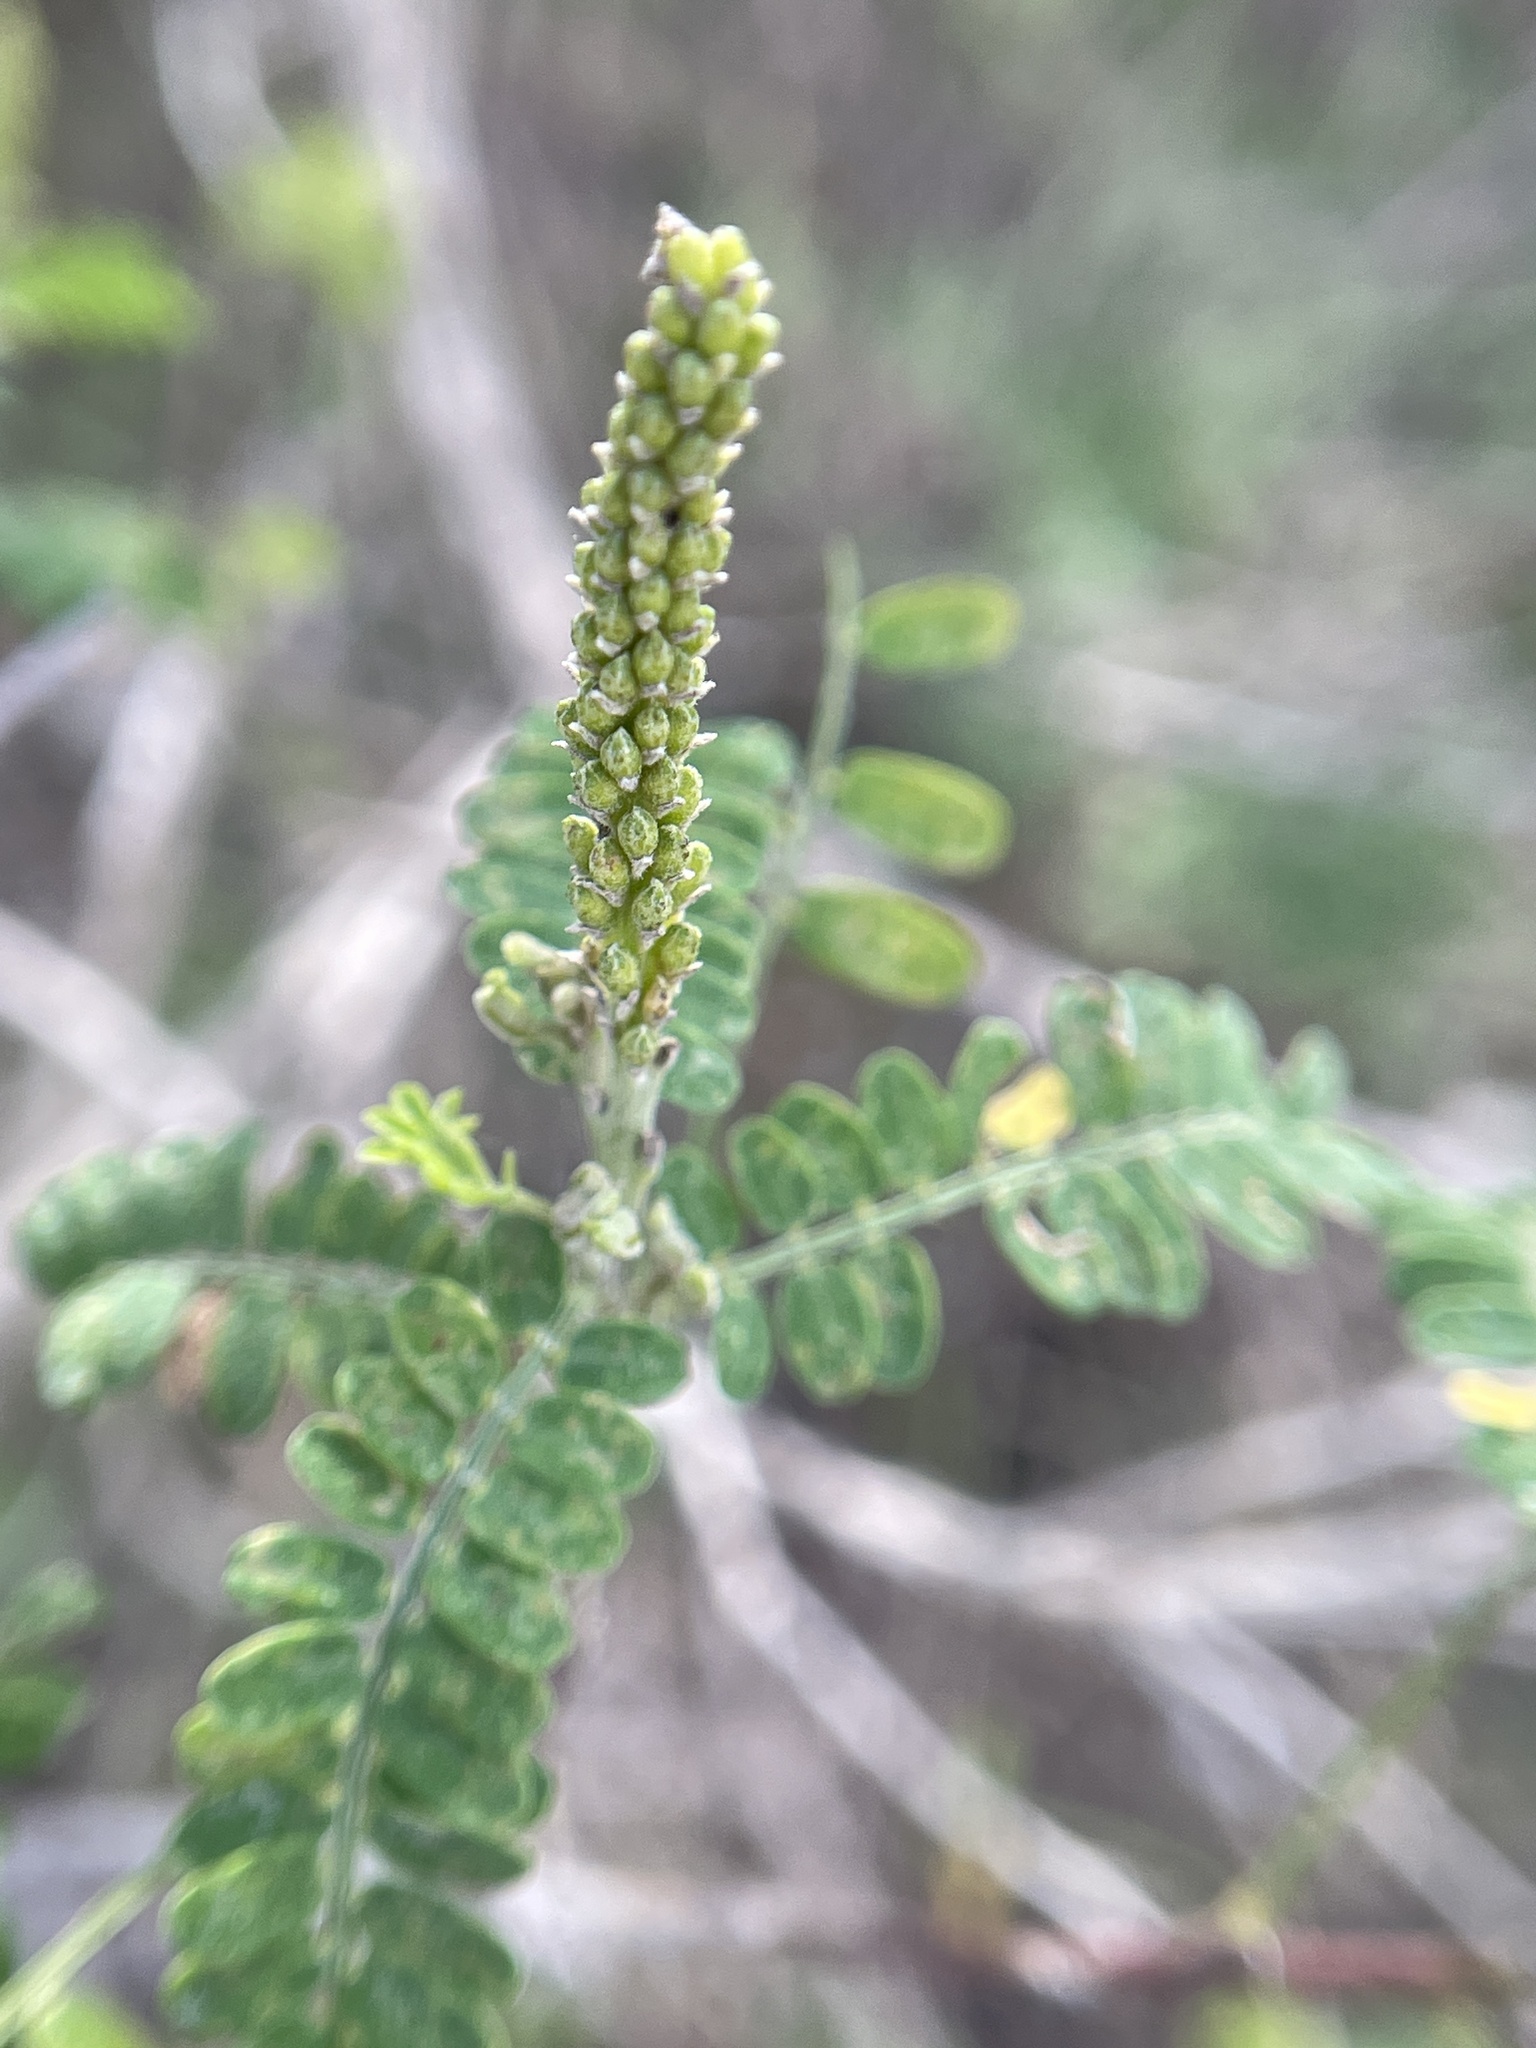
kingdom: Plantae
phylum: Tracheophyta
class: Magnoliopsida
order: Fabales
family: Fabaceae
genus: Eysenhardtia
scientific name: Eysenhardtia texana
